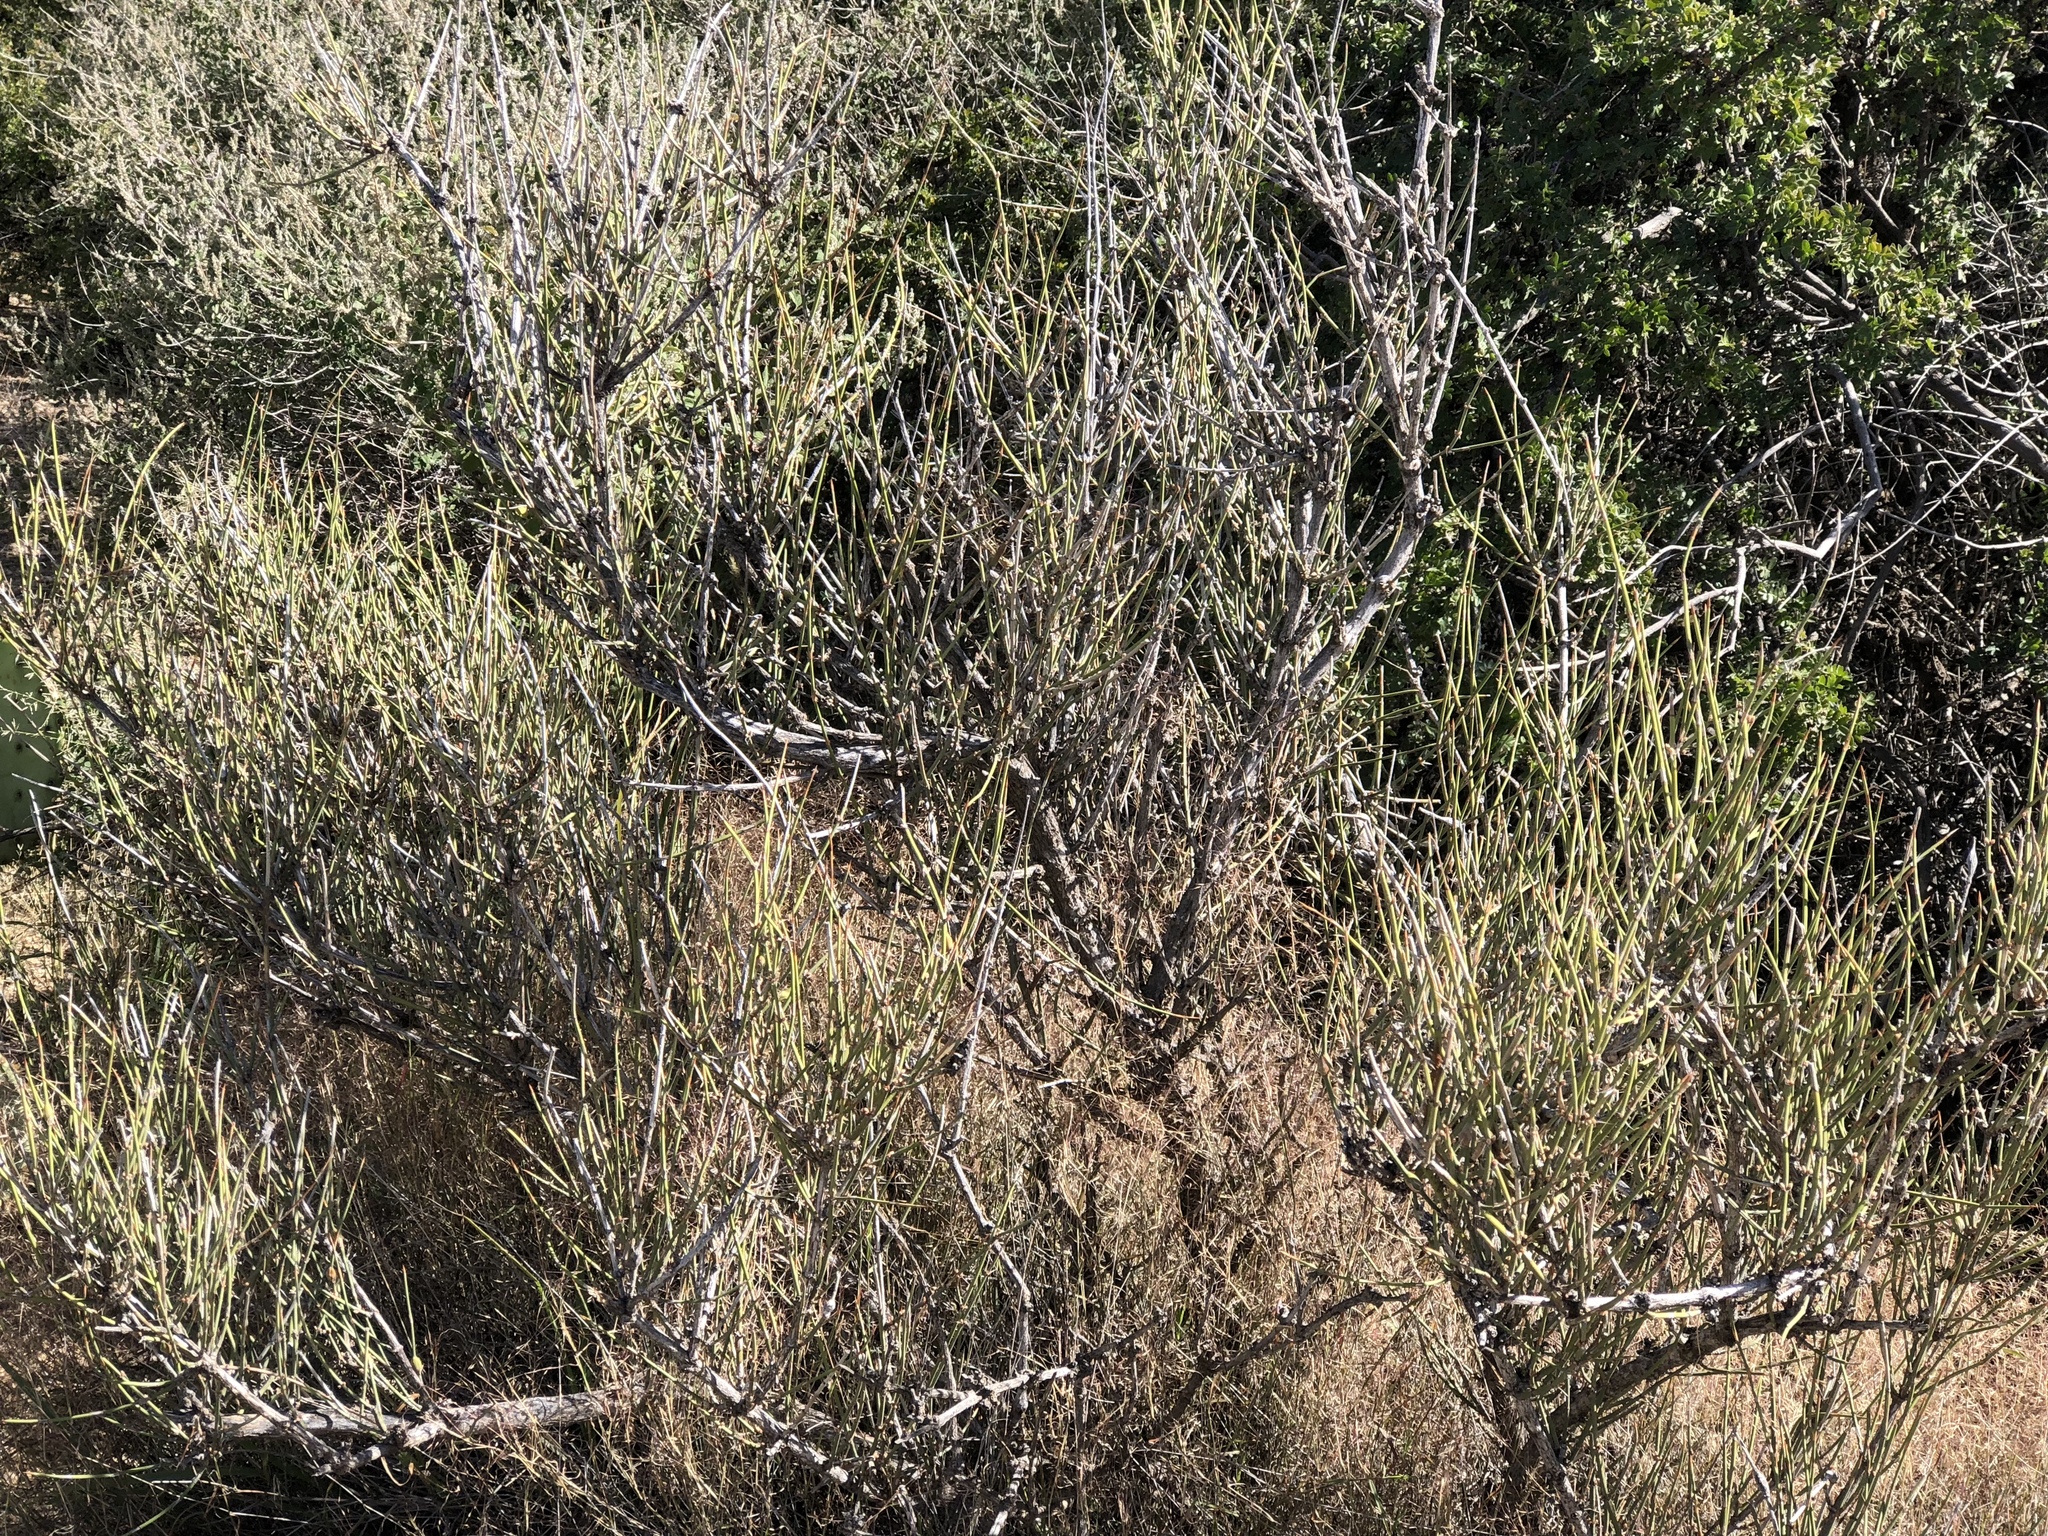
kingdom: Plantae
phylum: Tracheophyta
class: Gnetopsida
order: Ephedrales
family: Ephedraceae
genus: Ephedra
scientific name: Ephedra trifurca
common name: Mexican-tea
